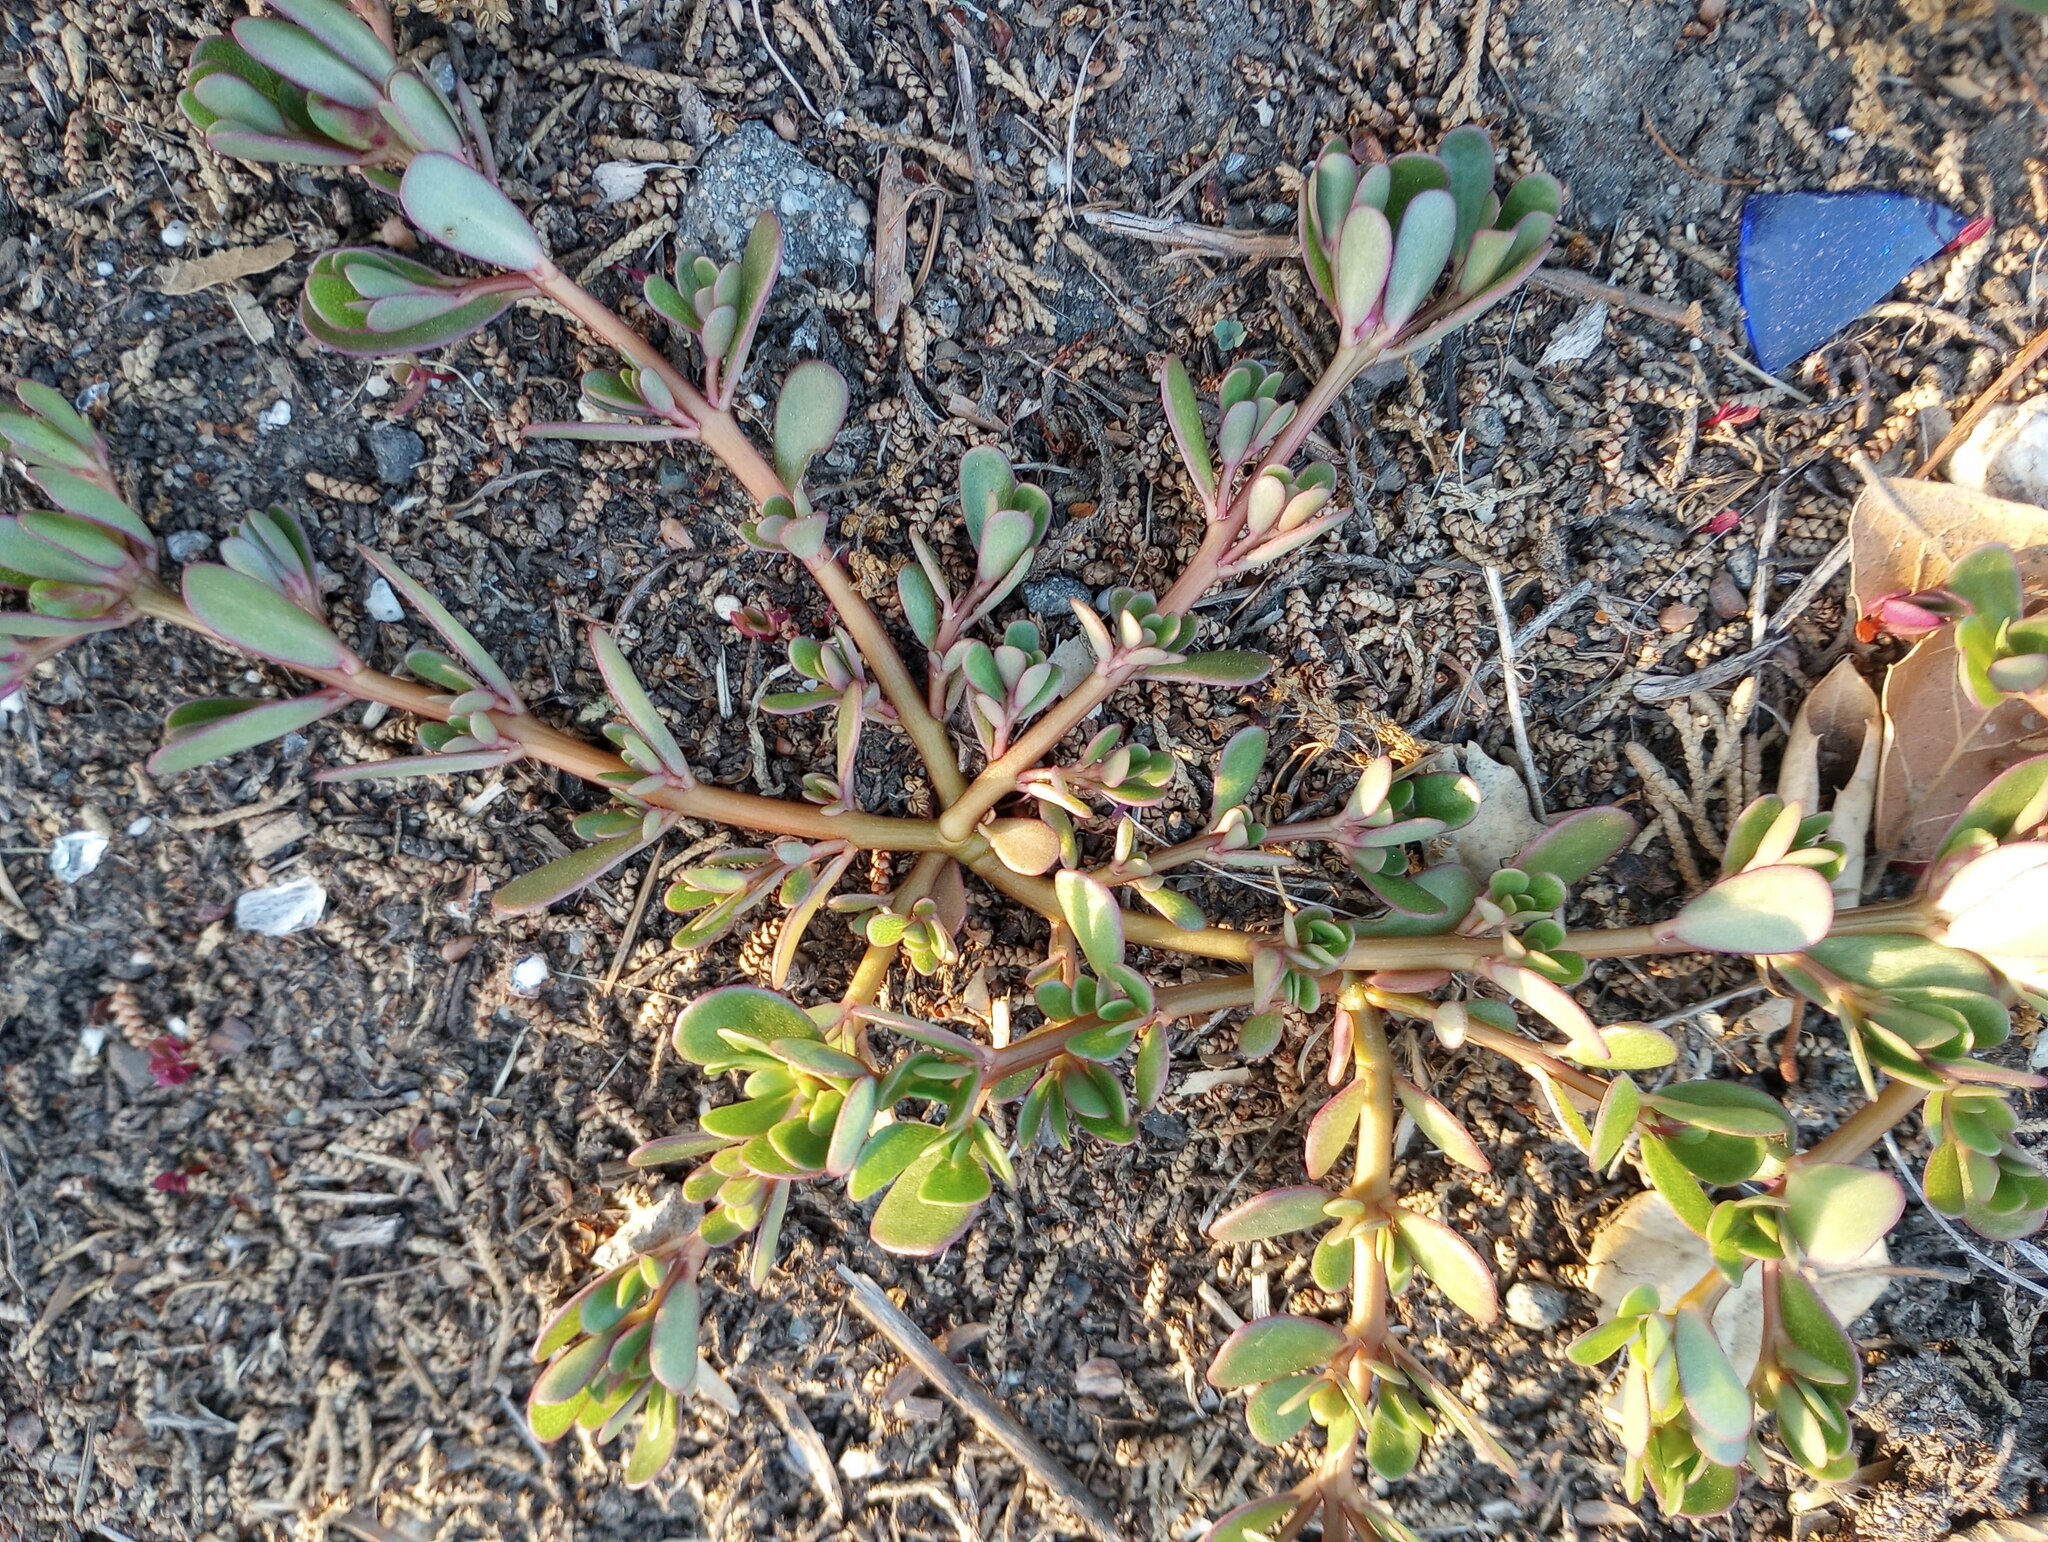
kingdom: Plantae
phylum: Tracheophyta
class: Magnoliopsida
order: Caryophyllales
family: Portulacaceae
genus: Portulaca
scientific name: Portulaca oleracea
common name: Common purslane
